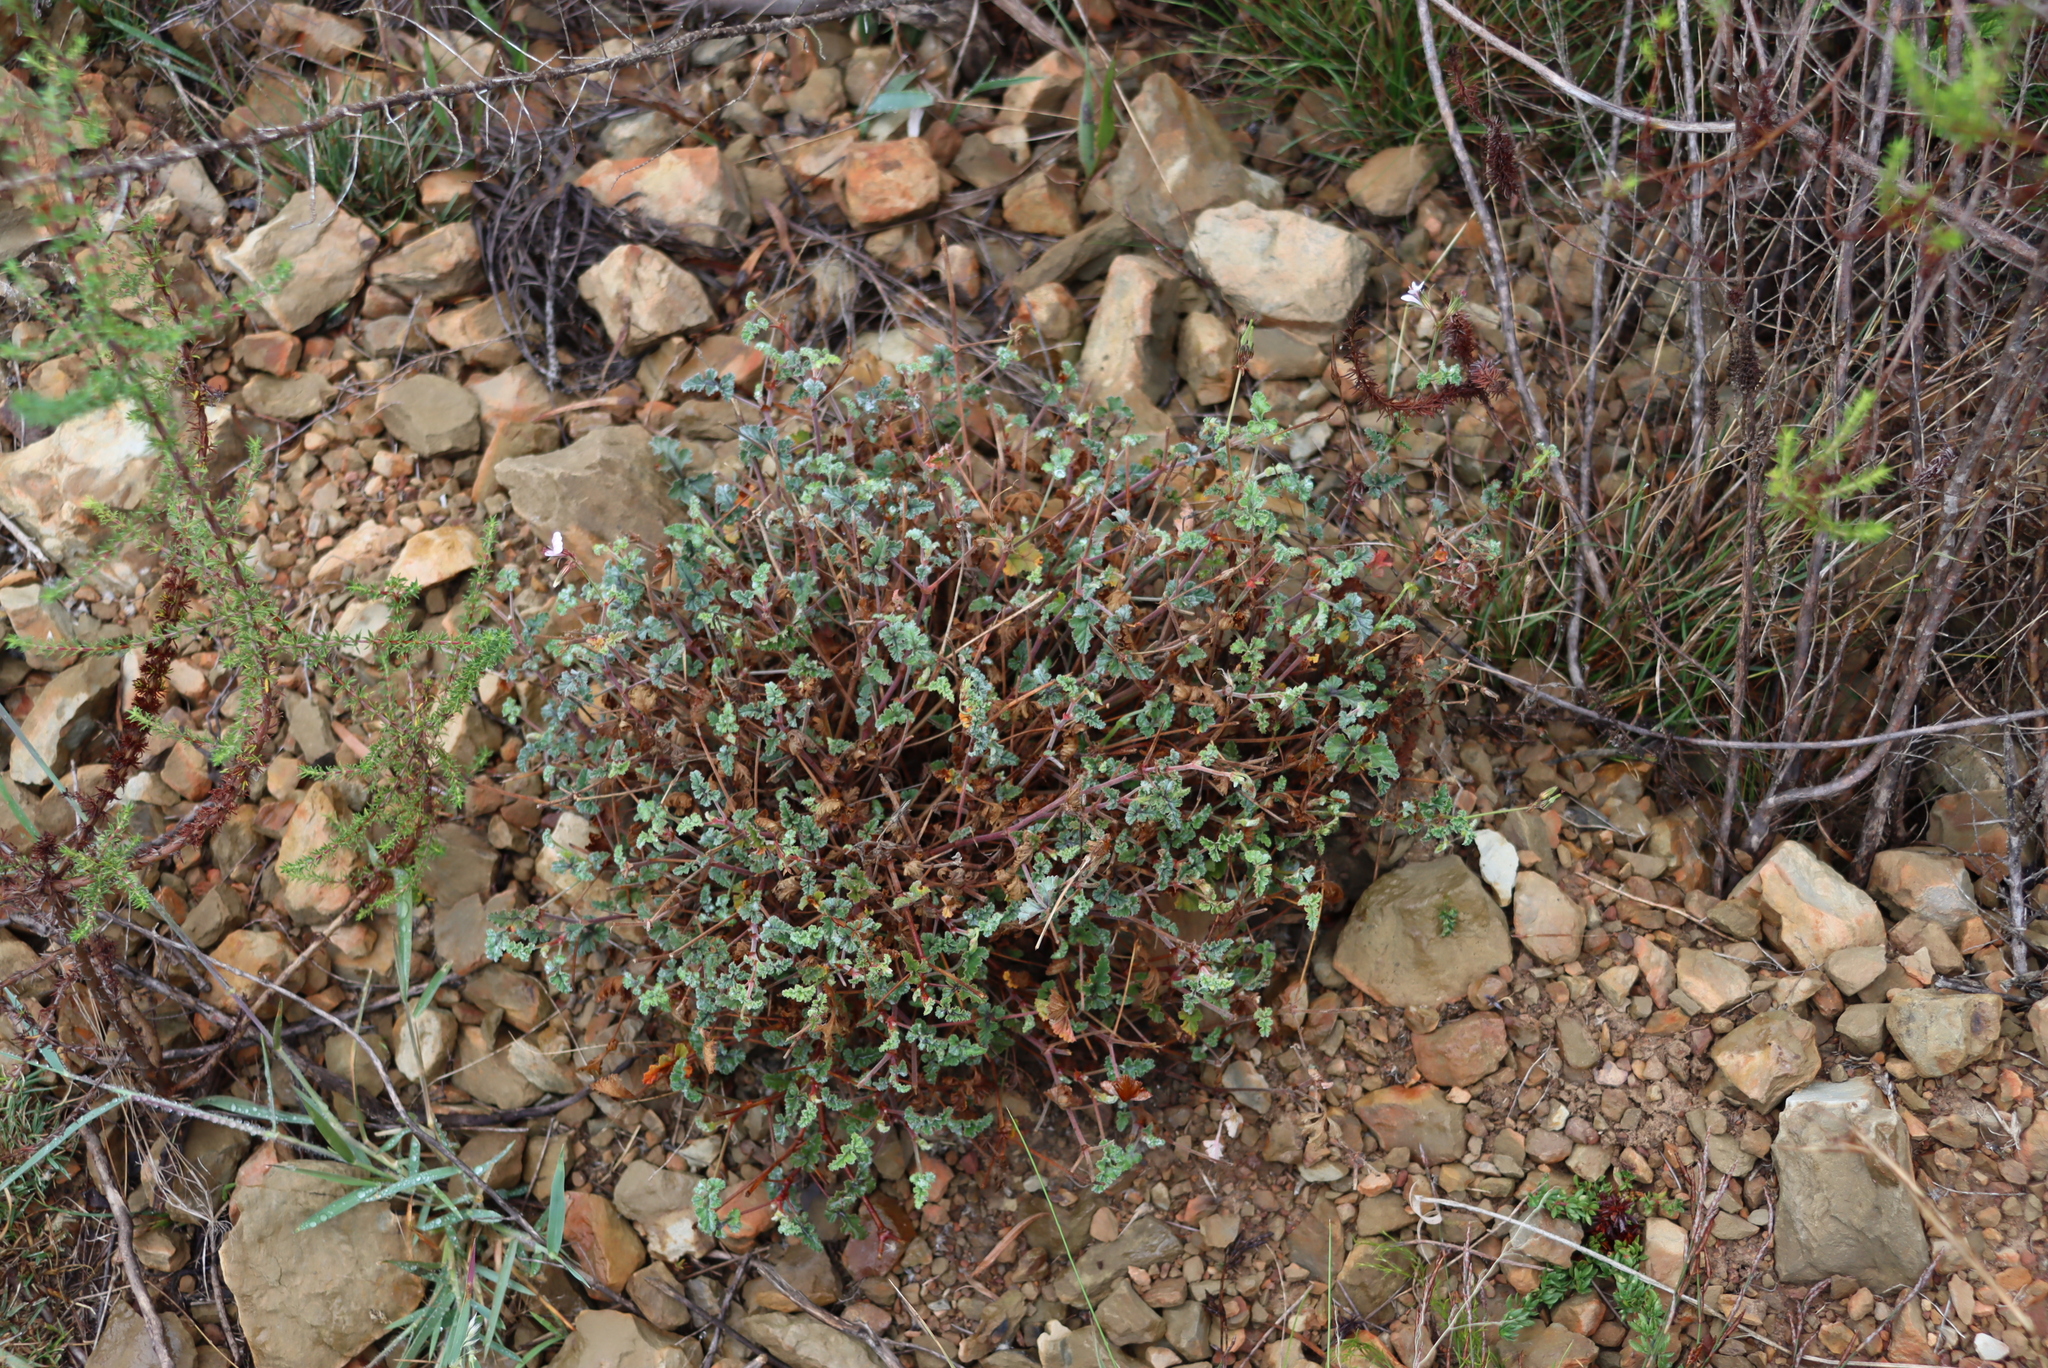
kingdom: Plantae
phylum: Tracheophyta
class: Magnoliopsida
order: Geraniales
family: Geraniaceae
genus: Pelargonium
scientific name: Pelargonium candicans
